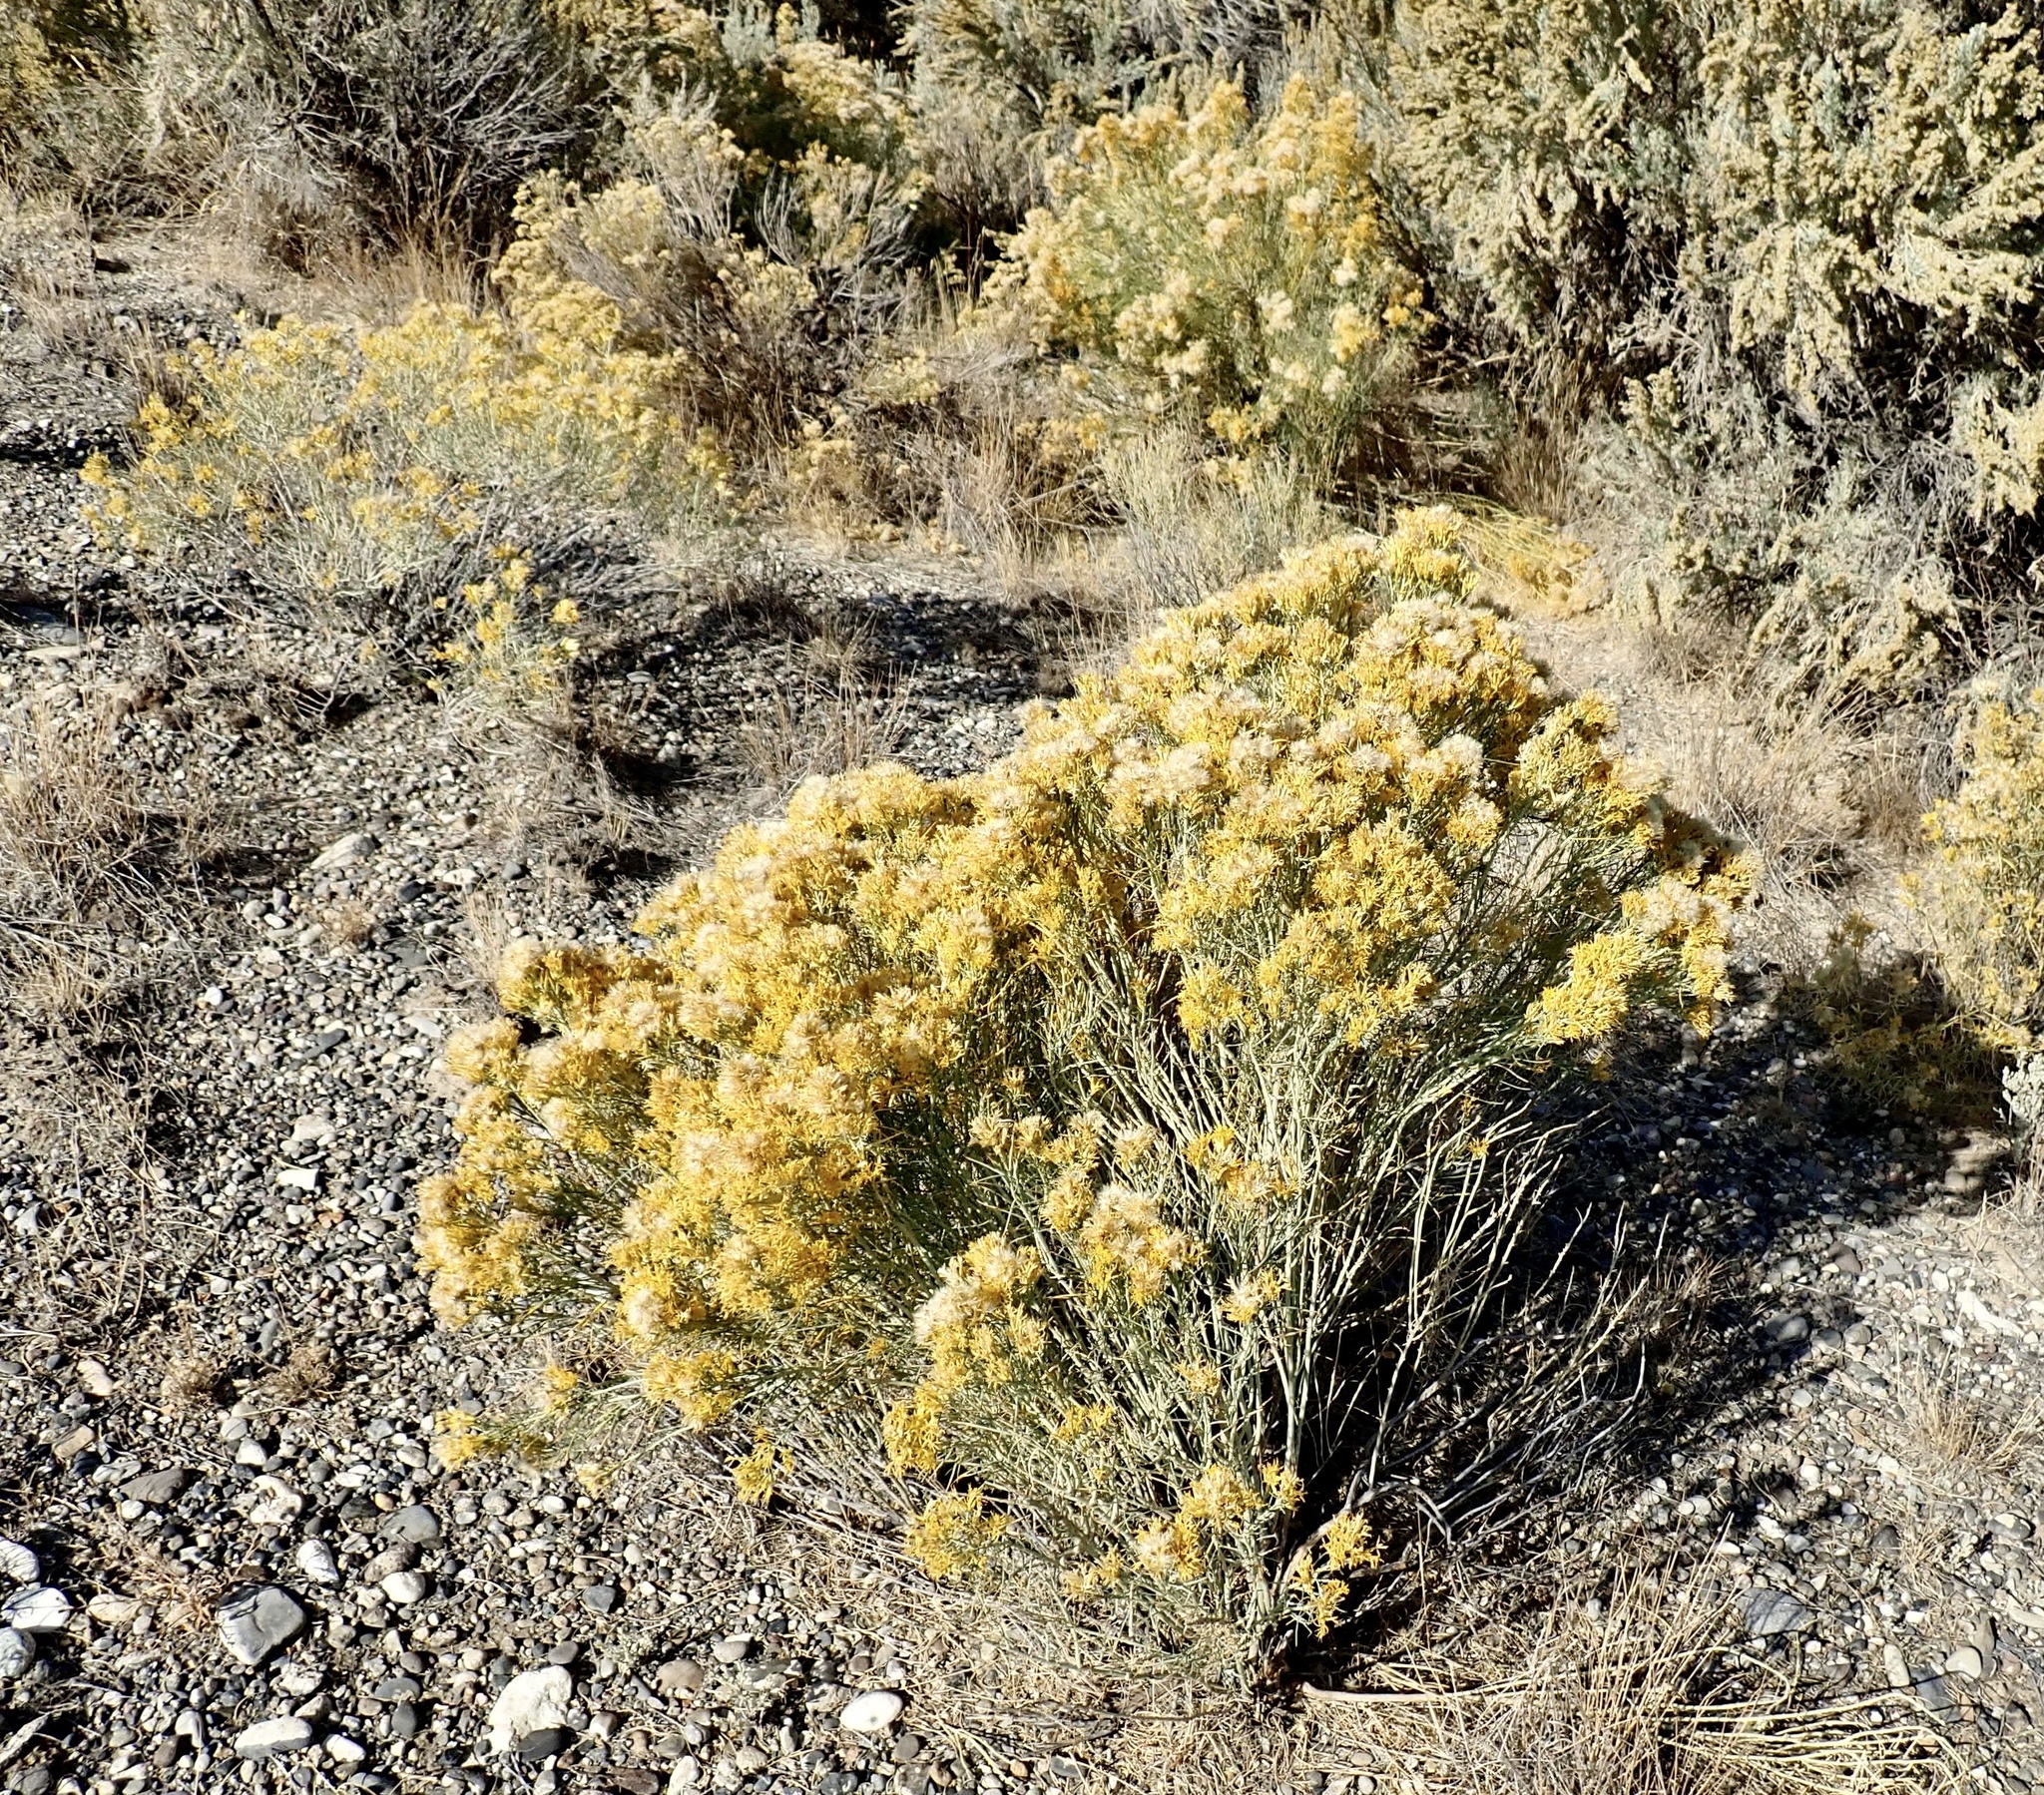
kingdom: Plantae
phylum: Tracheophyta
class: Magnoliopsida
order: Asterales
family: Asteraceae
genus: Ericameria
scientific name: Ericameria nauseosa
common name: Rubber rabbitbrush
